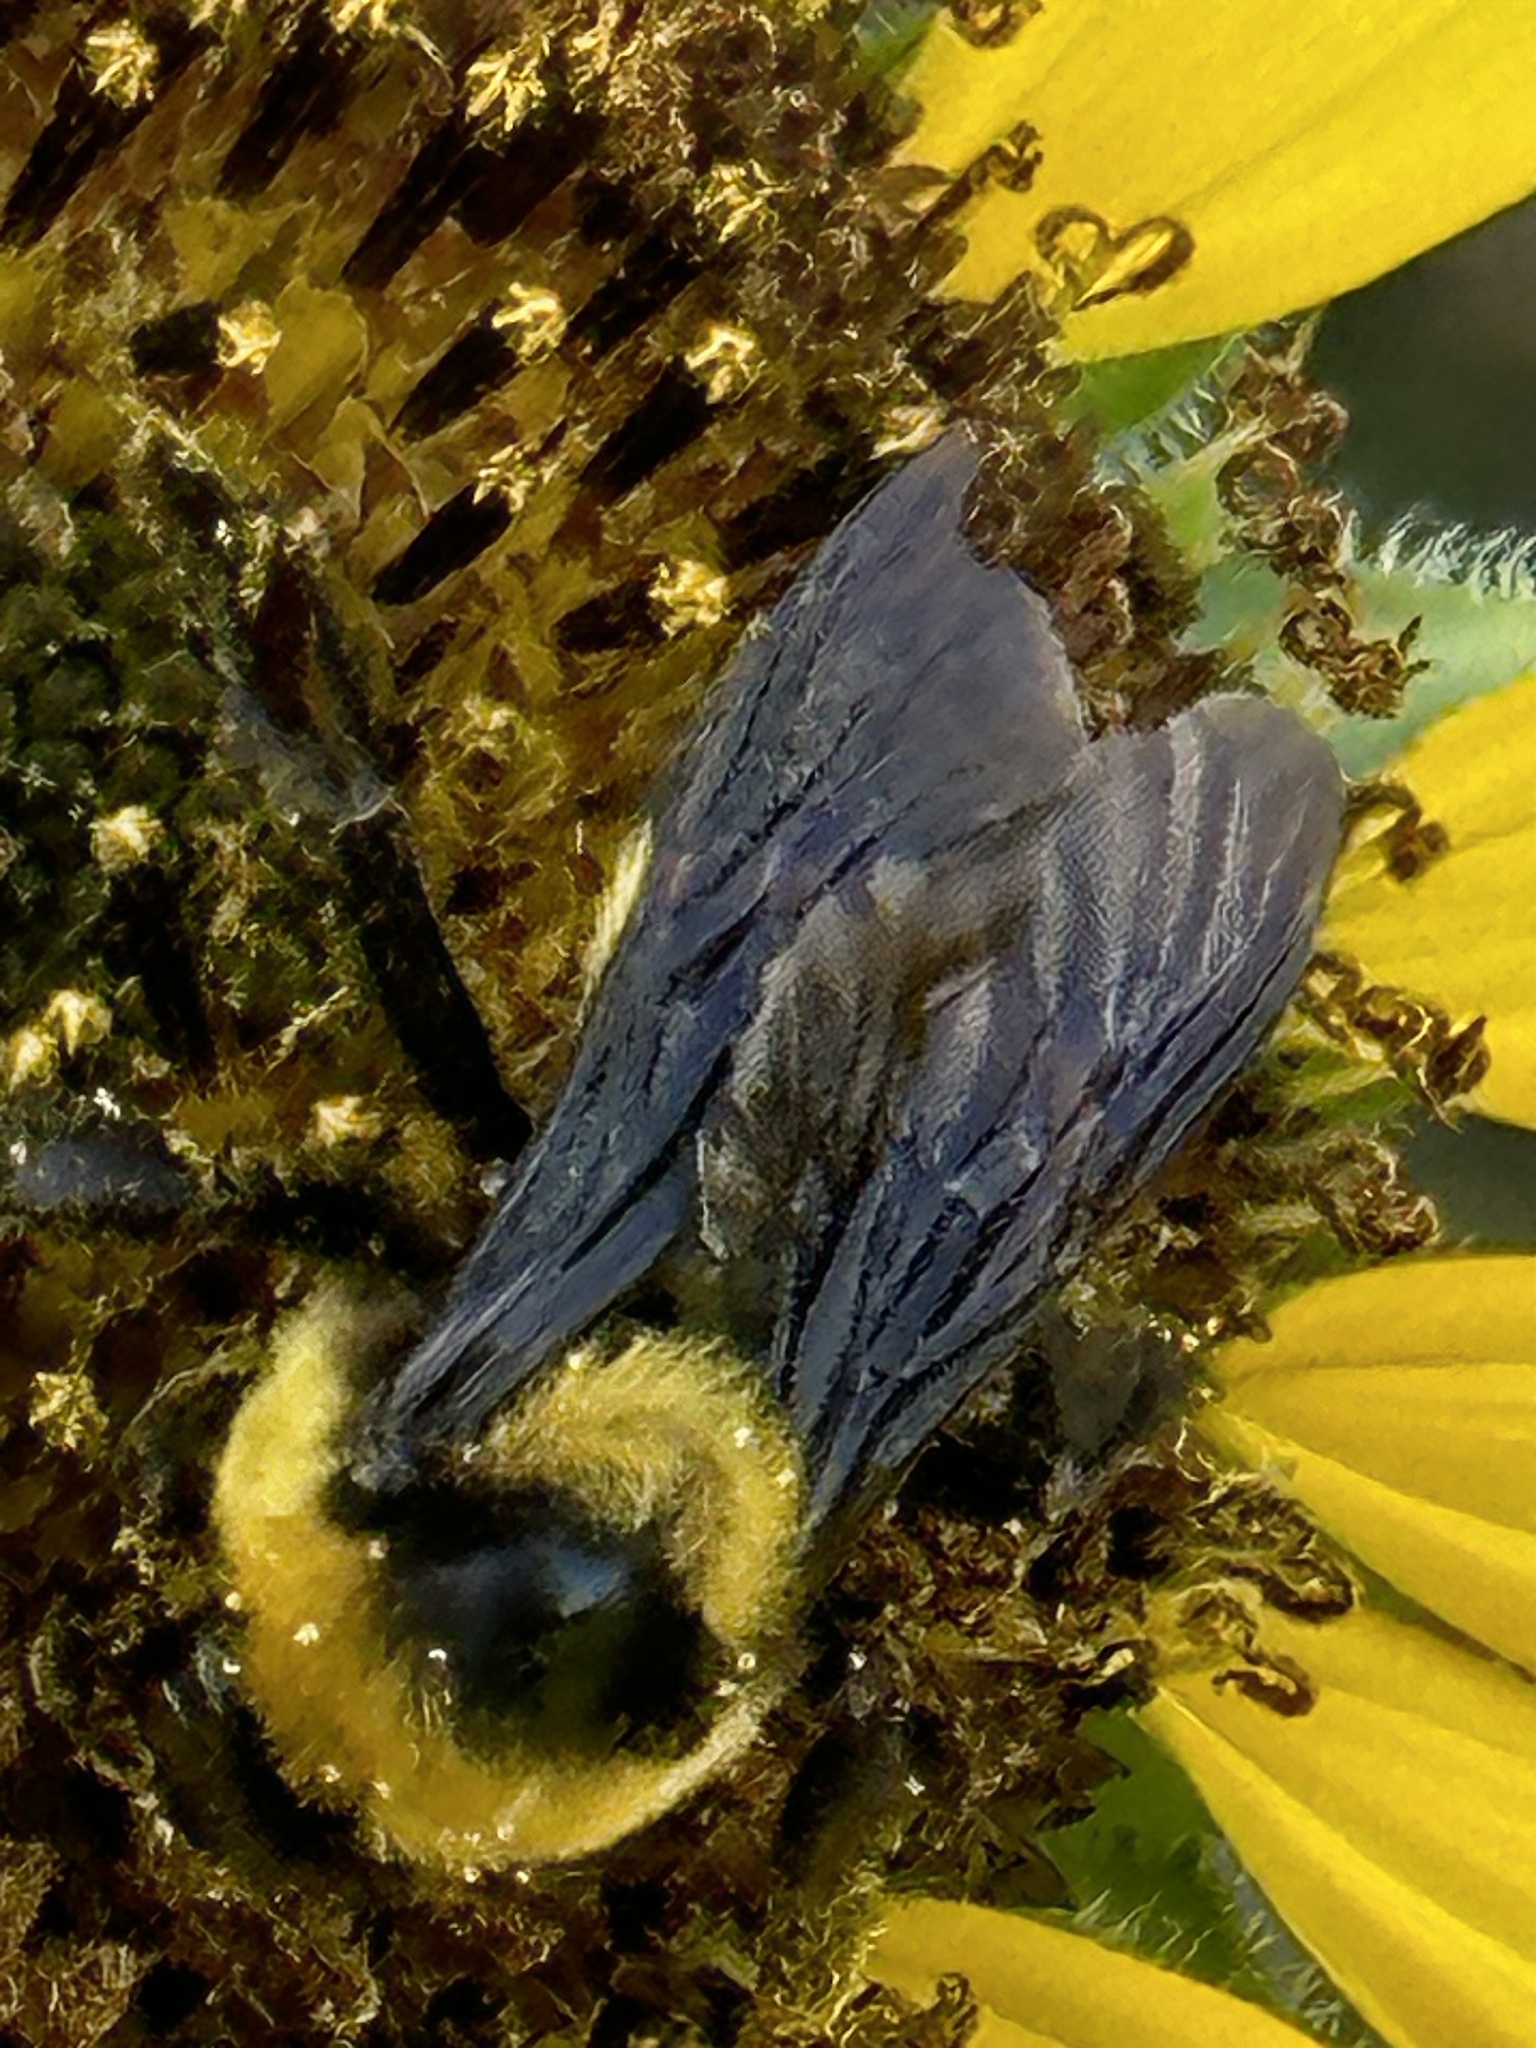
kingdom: Animalia
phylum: Arthropoda
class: Insecta
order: Hymenoptera
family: Apidae
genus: Bombus
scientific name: Bombus fraternus
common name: Southern plains bumble bee
